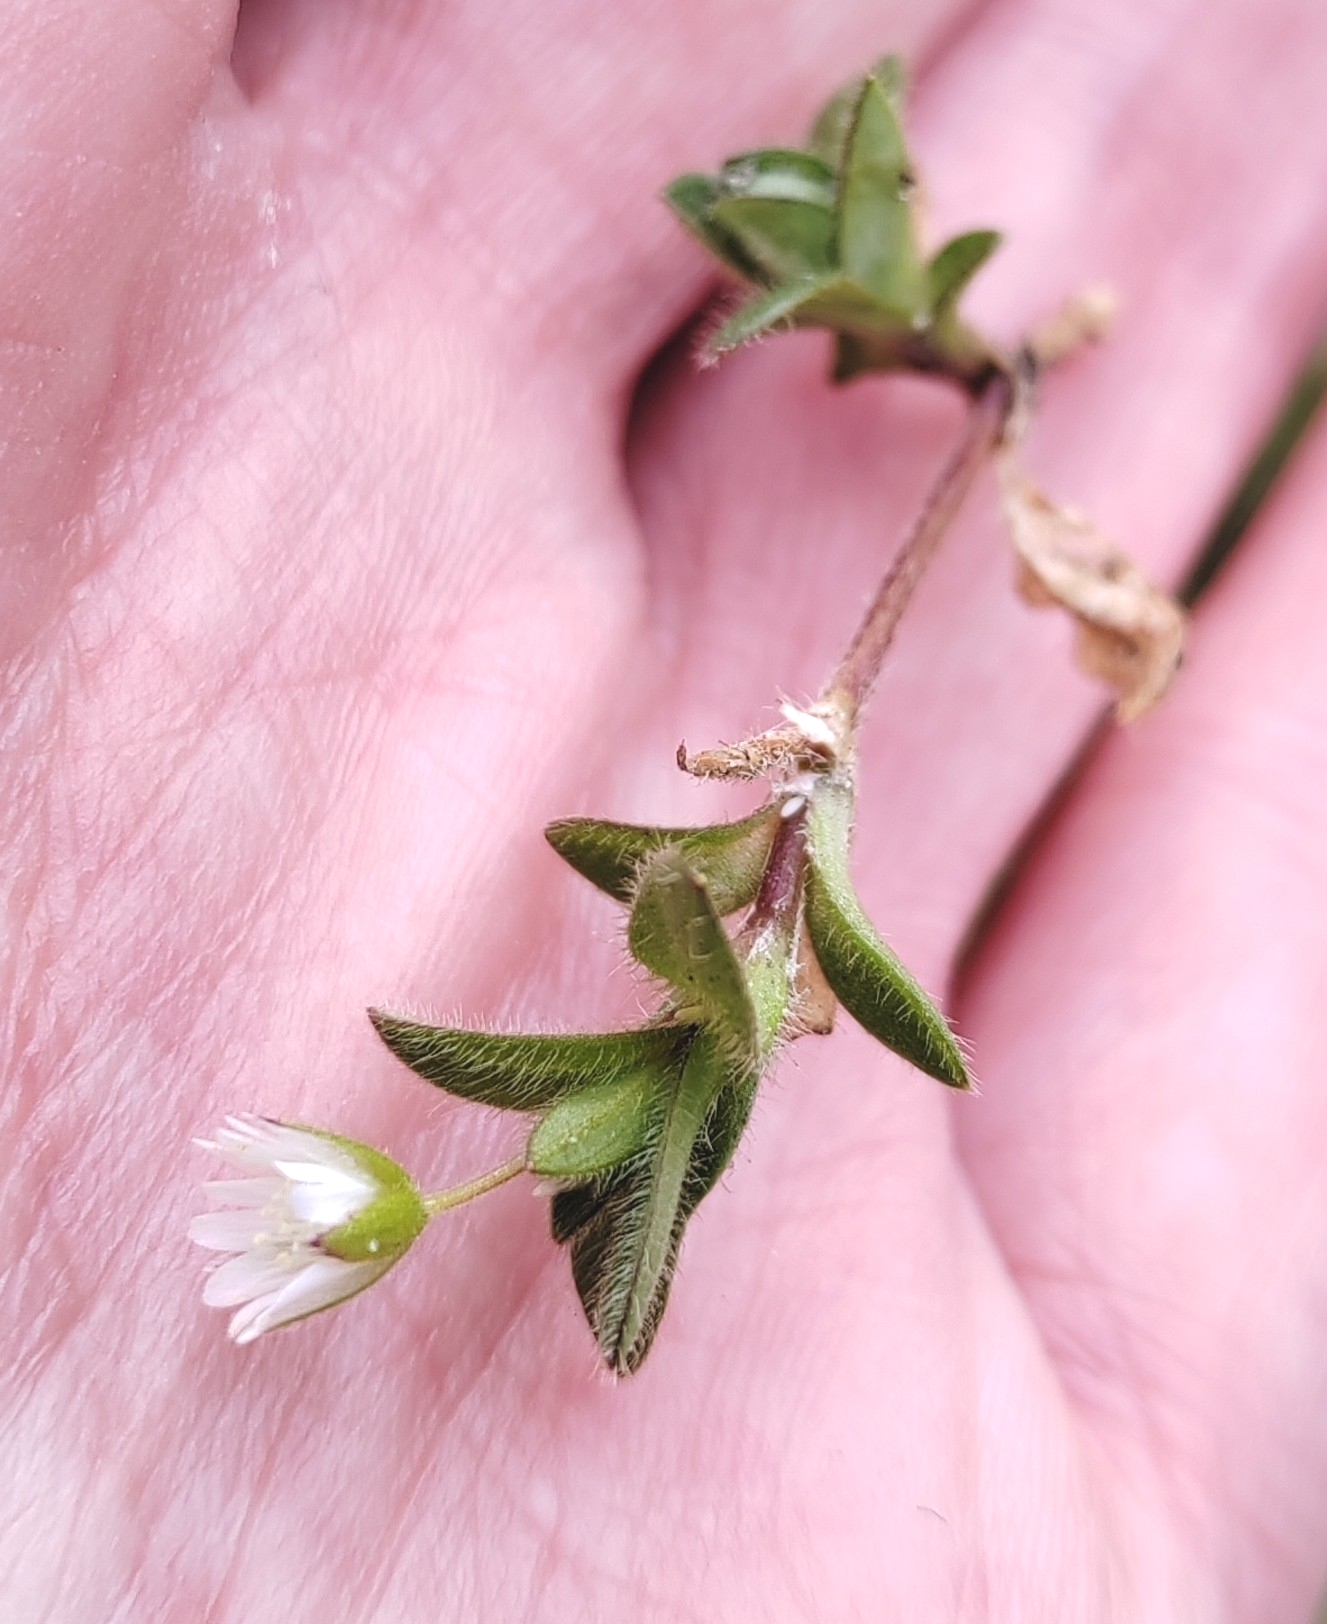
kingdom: Plantae
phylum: Tracheophyta
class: Magnoliopsida
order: Caryophyllales
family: Caryophyllaceae
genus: Cerastium
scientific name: Cerastium holosteoides
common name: Big chickweed
